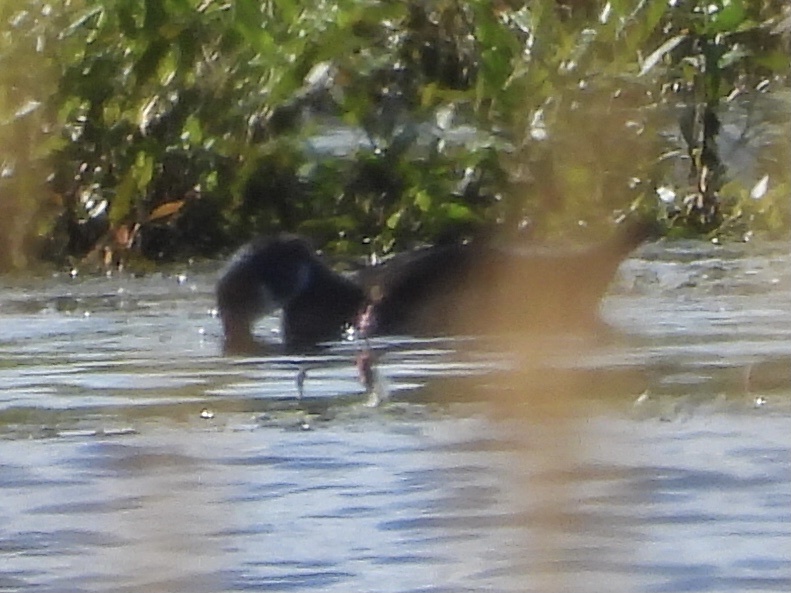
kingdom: Animalia
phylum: Chordata
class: Aves
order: Anseriformes
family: Anatidae
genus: Aix
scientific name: Aix sponsa
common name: Wood duck
